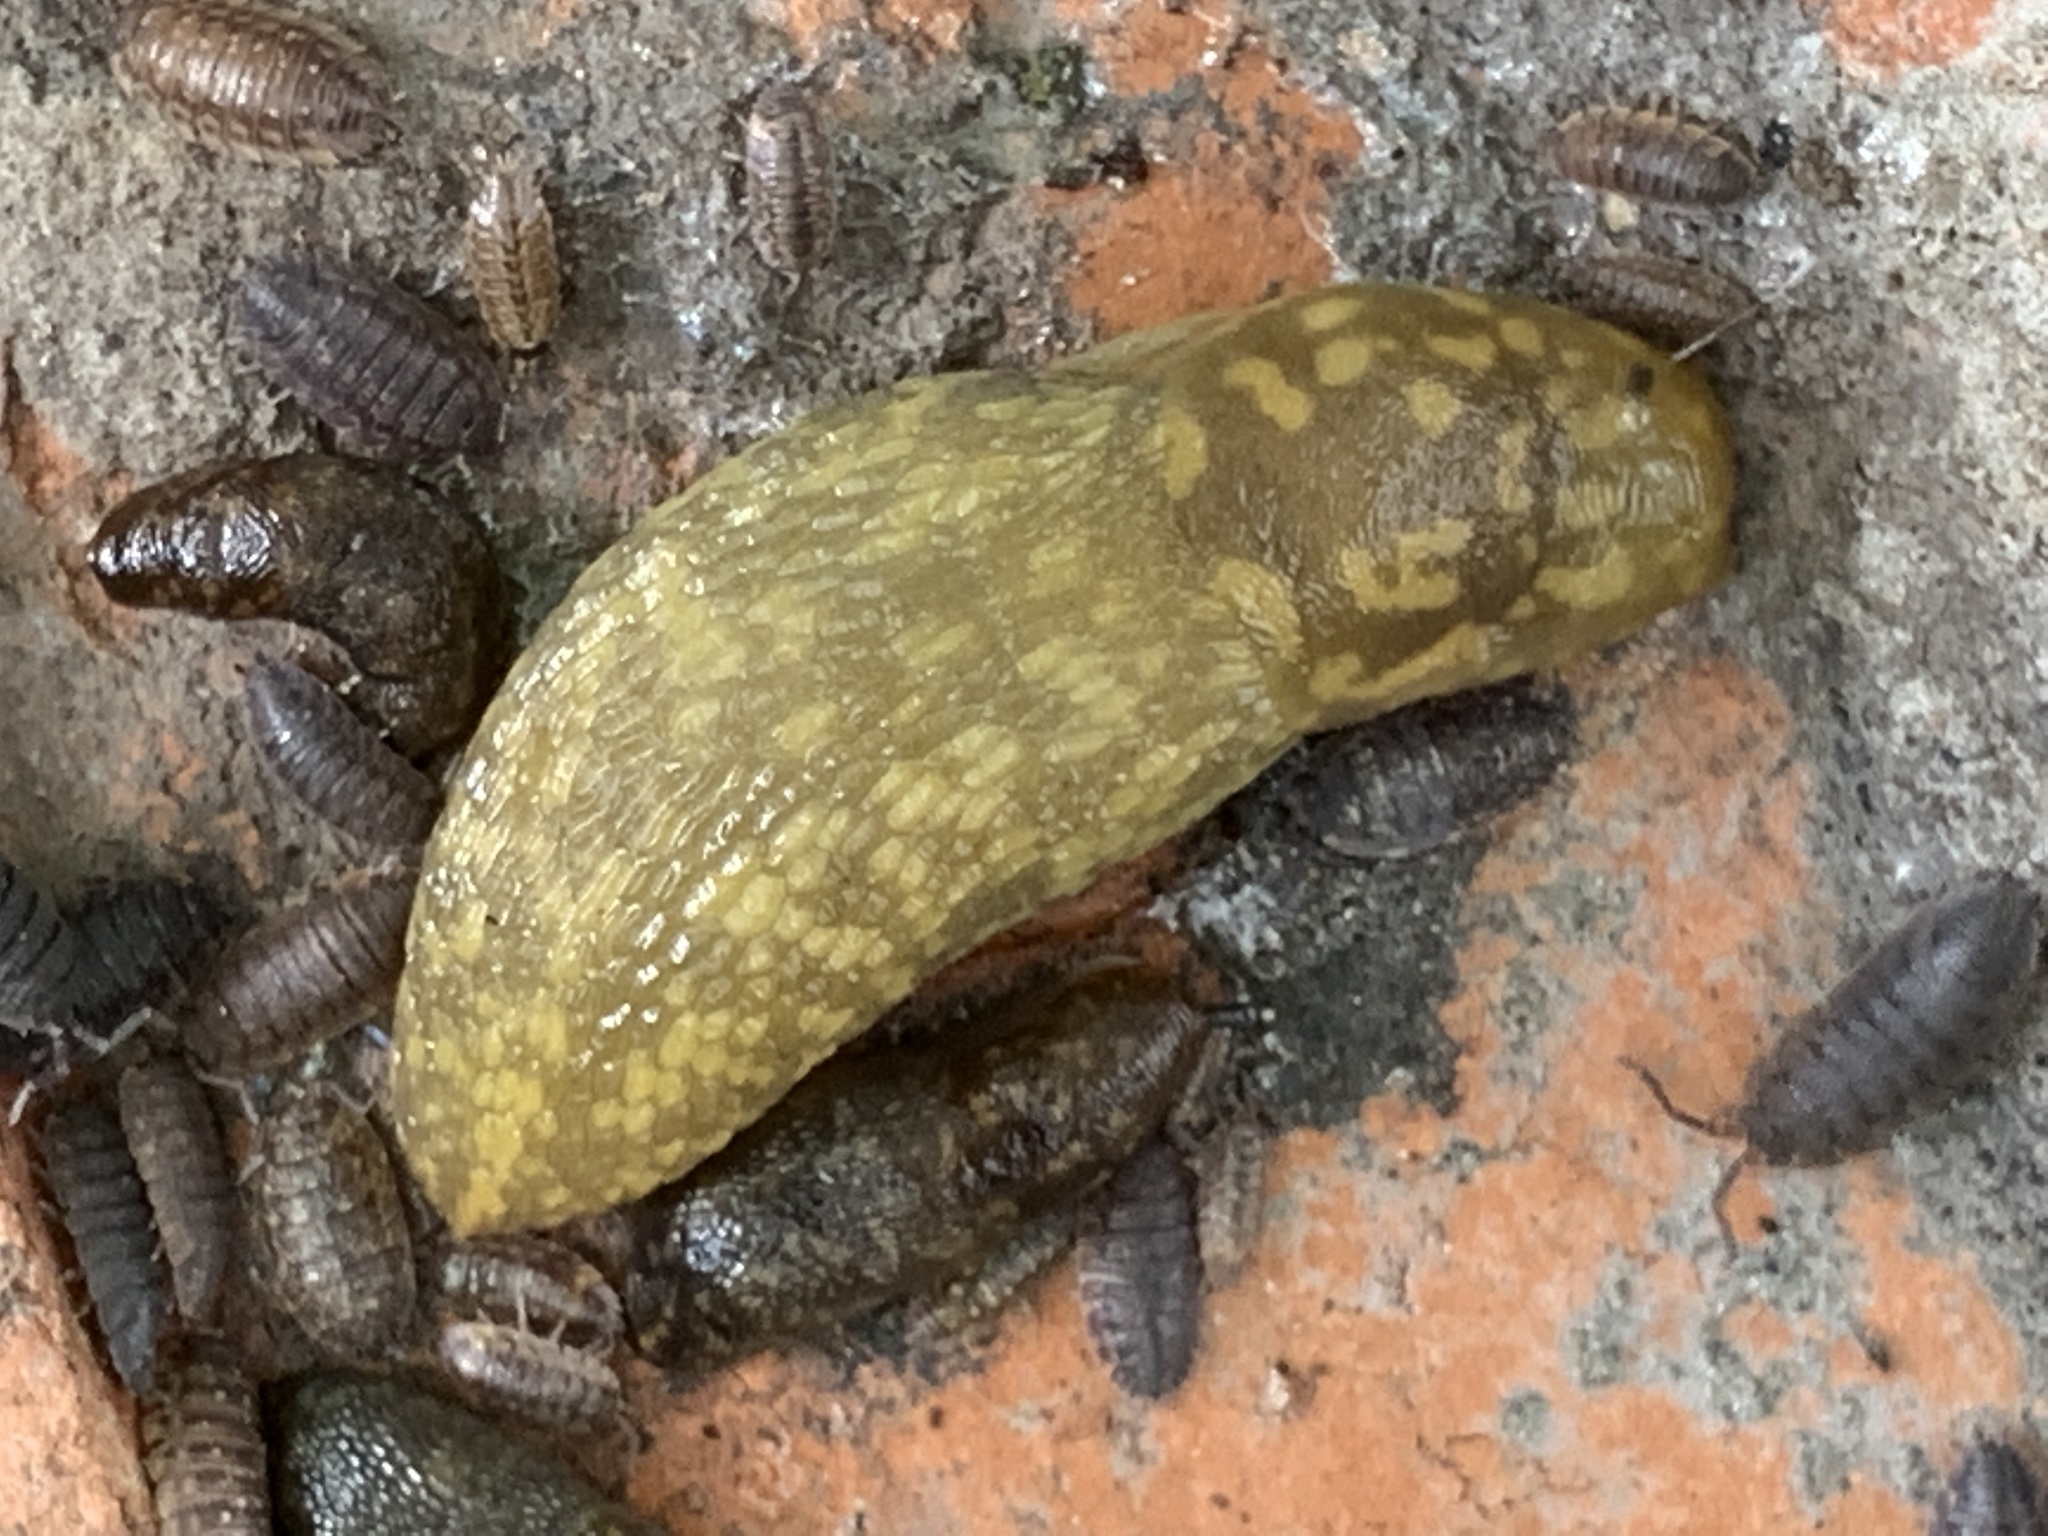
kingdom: Animalia
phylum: Mollusca
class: Gastropoda
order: Stylommatophora
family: Limacidae
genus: Limacus
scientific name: Limacus maculatus
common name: Irish yellow slug
